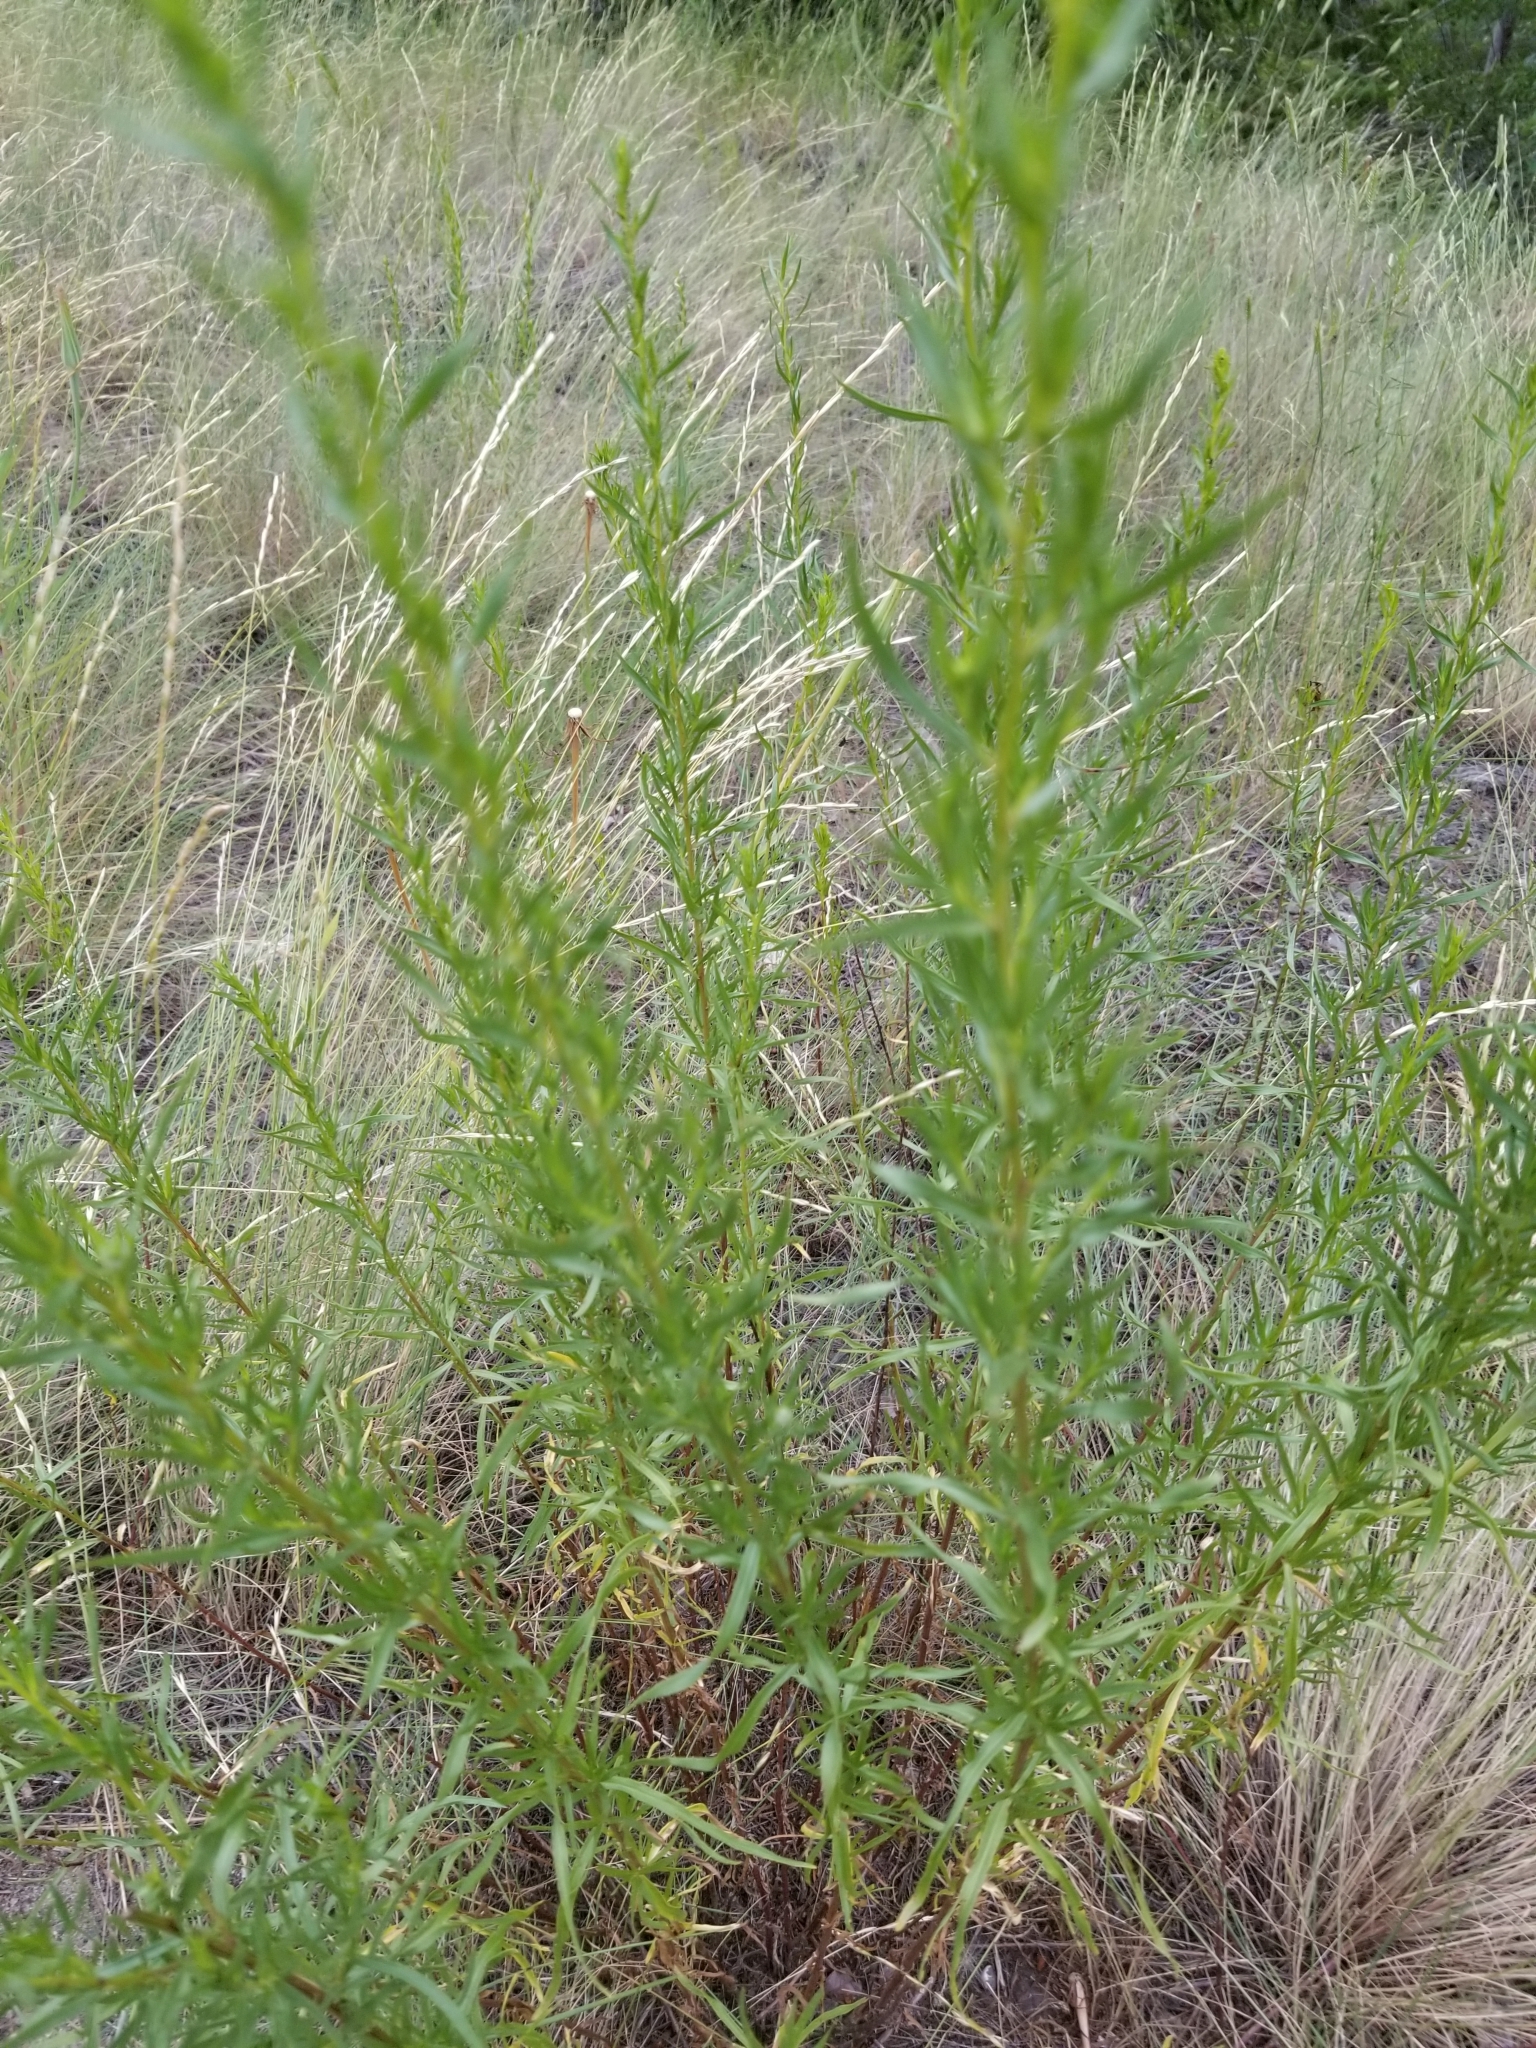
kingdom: Plantae
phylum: Tracheophyta
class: Magnoliopsida
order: Asterales
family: Asteraceae
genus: Artemisia
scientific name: Artemisia dracunculus
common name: Tarragon
